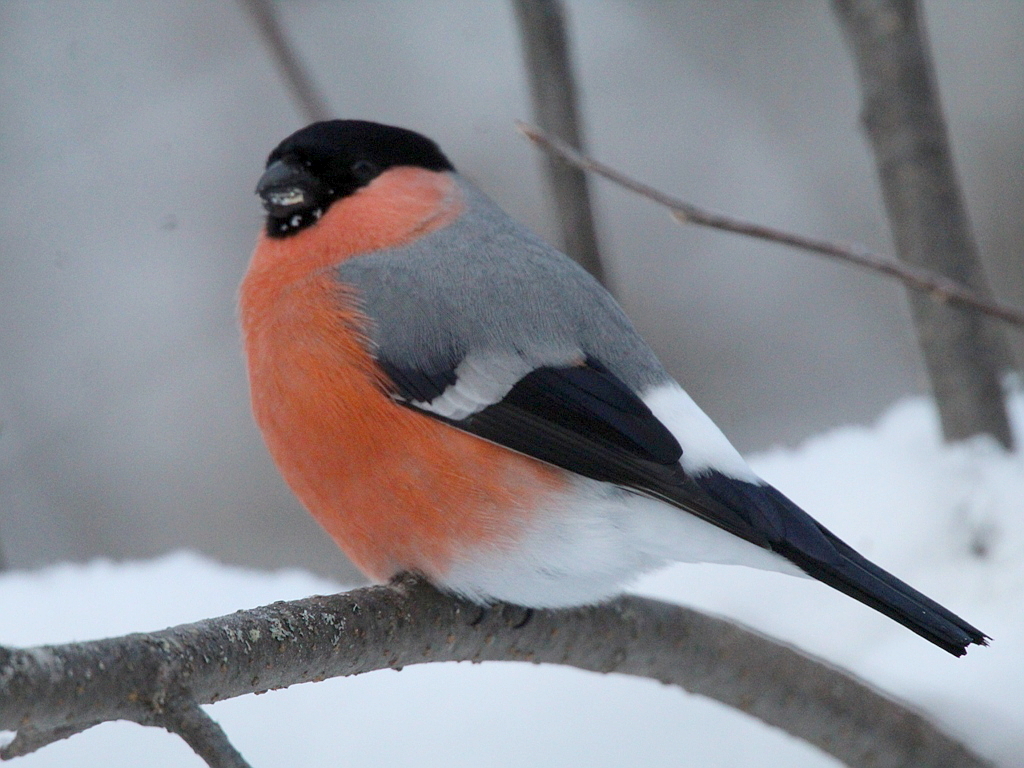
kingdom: Animalia
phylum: Chordata
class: Aves
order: Passeriformes
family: Fringillidae
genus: Pyrrhula
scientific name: Pyrrhula pyrrhula
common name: Eurasian bullfinch
